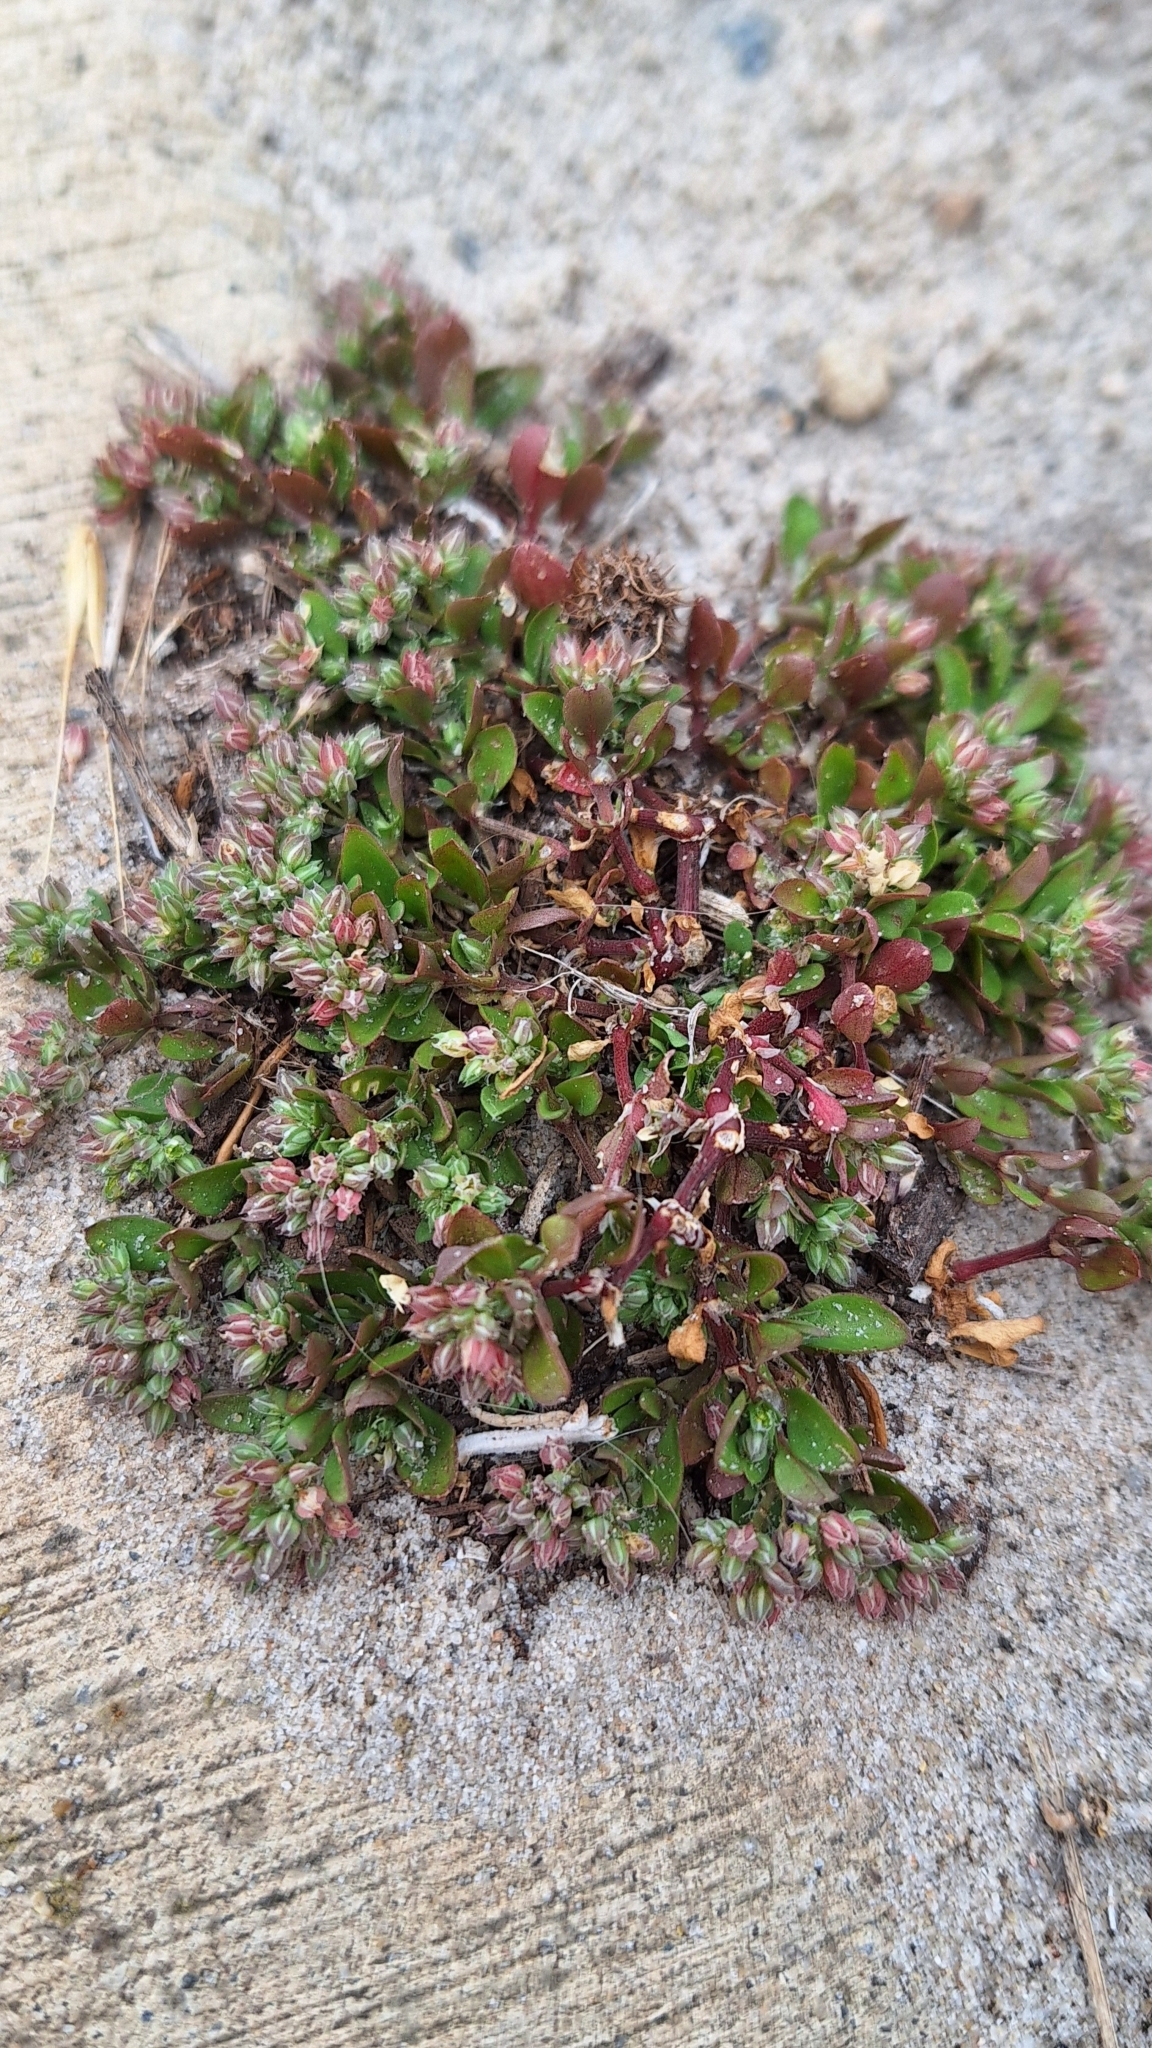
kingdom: Plantae
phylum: Tracheophyta
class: Magnoliopsida
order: Caryophyllales
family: Caryophyllaceae
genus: Polycarpon
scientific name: Polycarpon tetraphyllum
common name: Four-leaved all-seed
